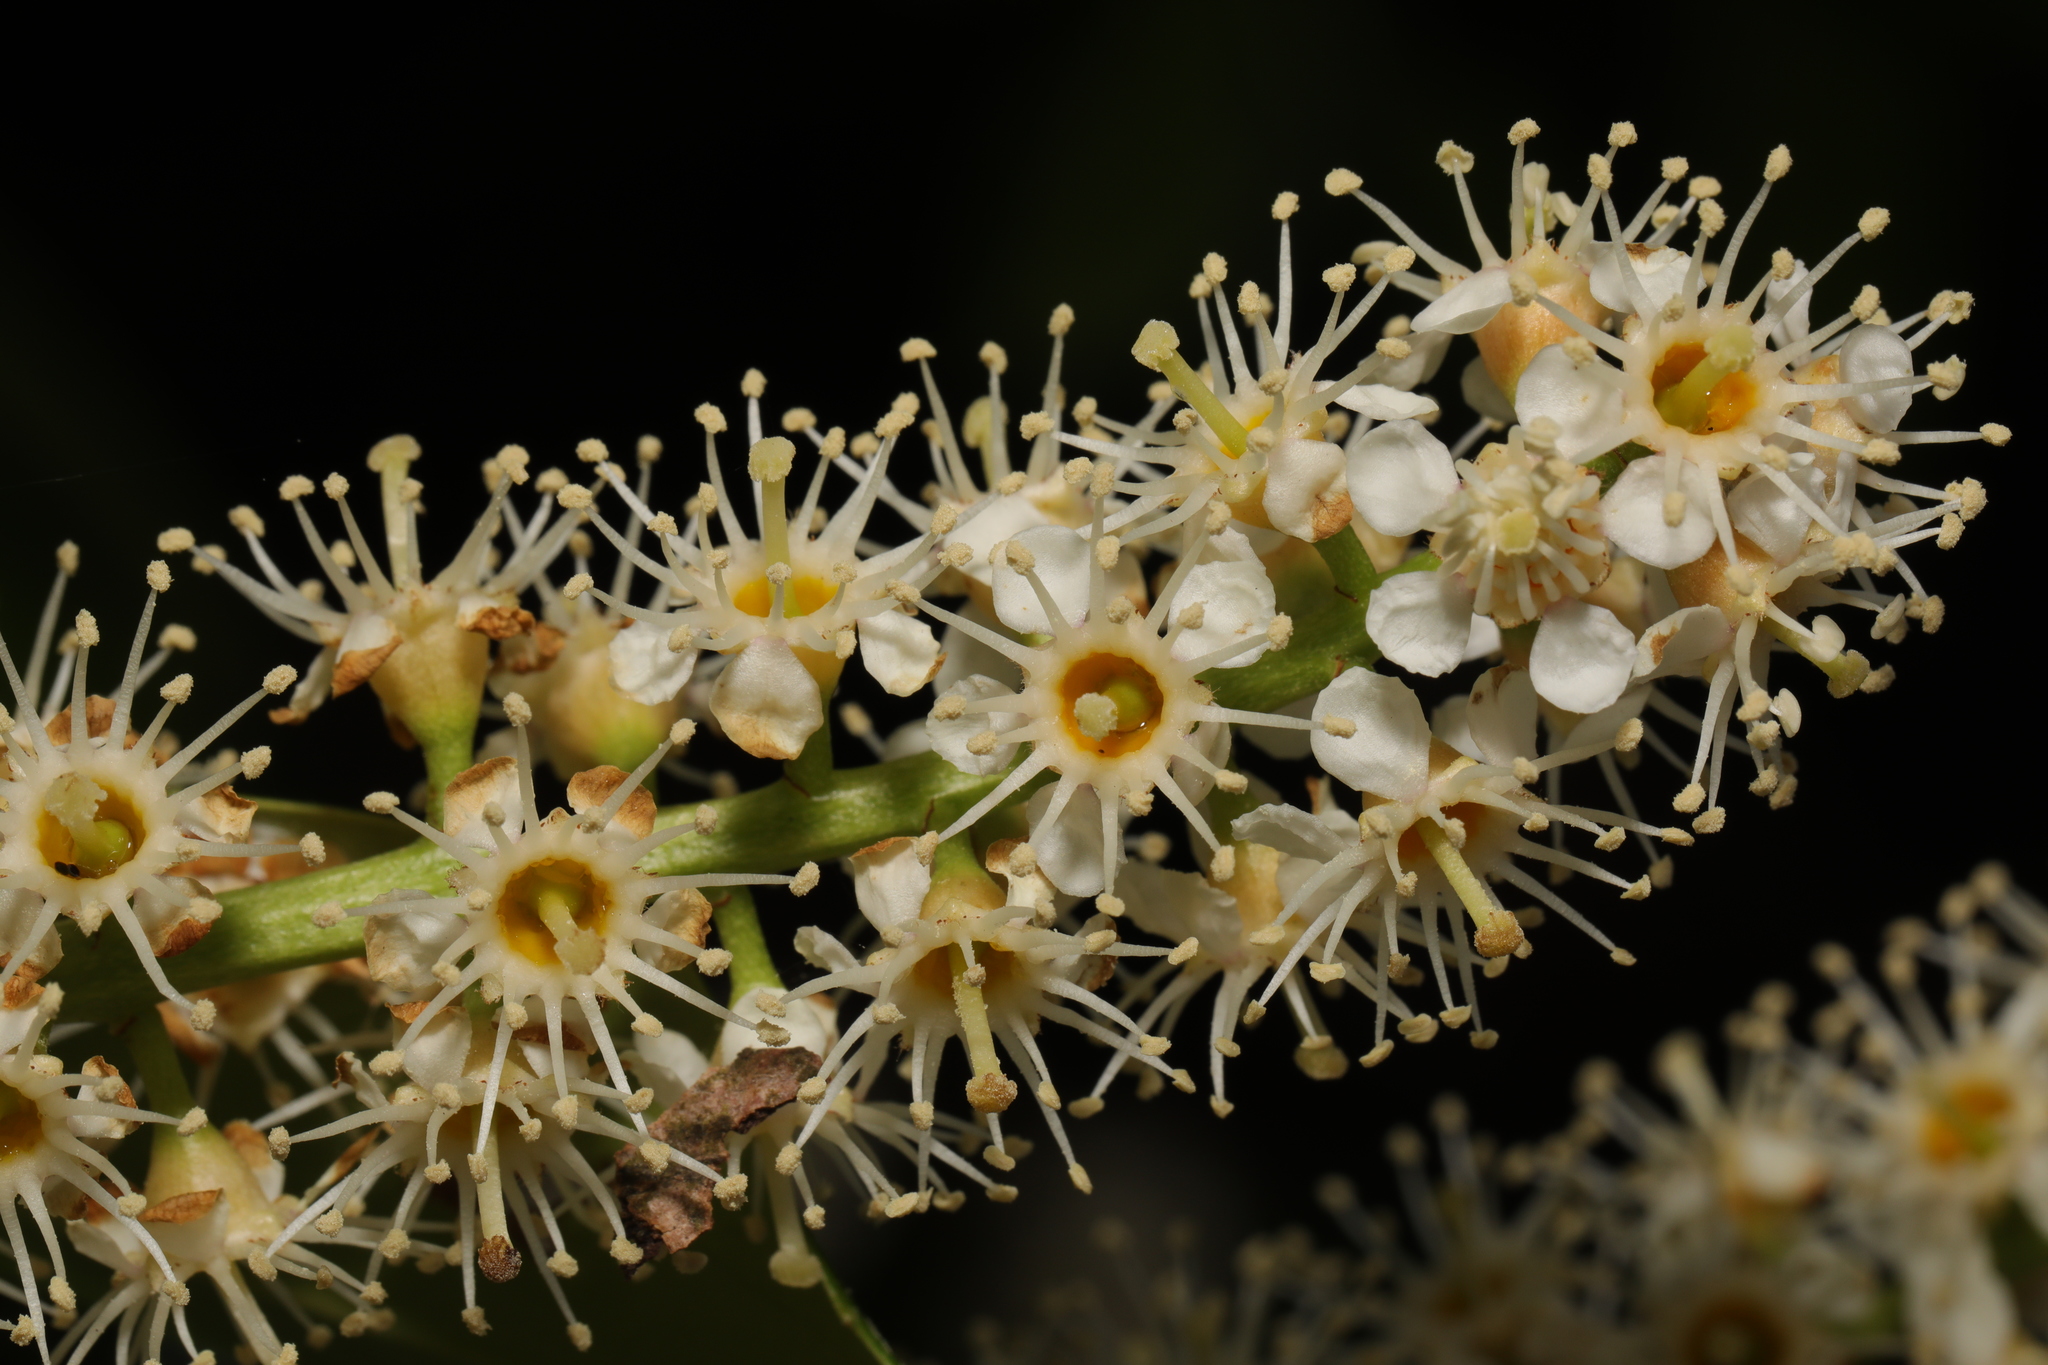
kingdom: Plantae
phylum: Tracheophyta
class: Magnoliopsida
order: Rosales
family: Rosaceae
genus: Prunus
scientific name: Prunus laurocerasus
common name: Cherry laurel
